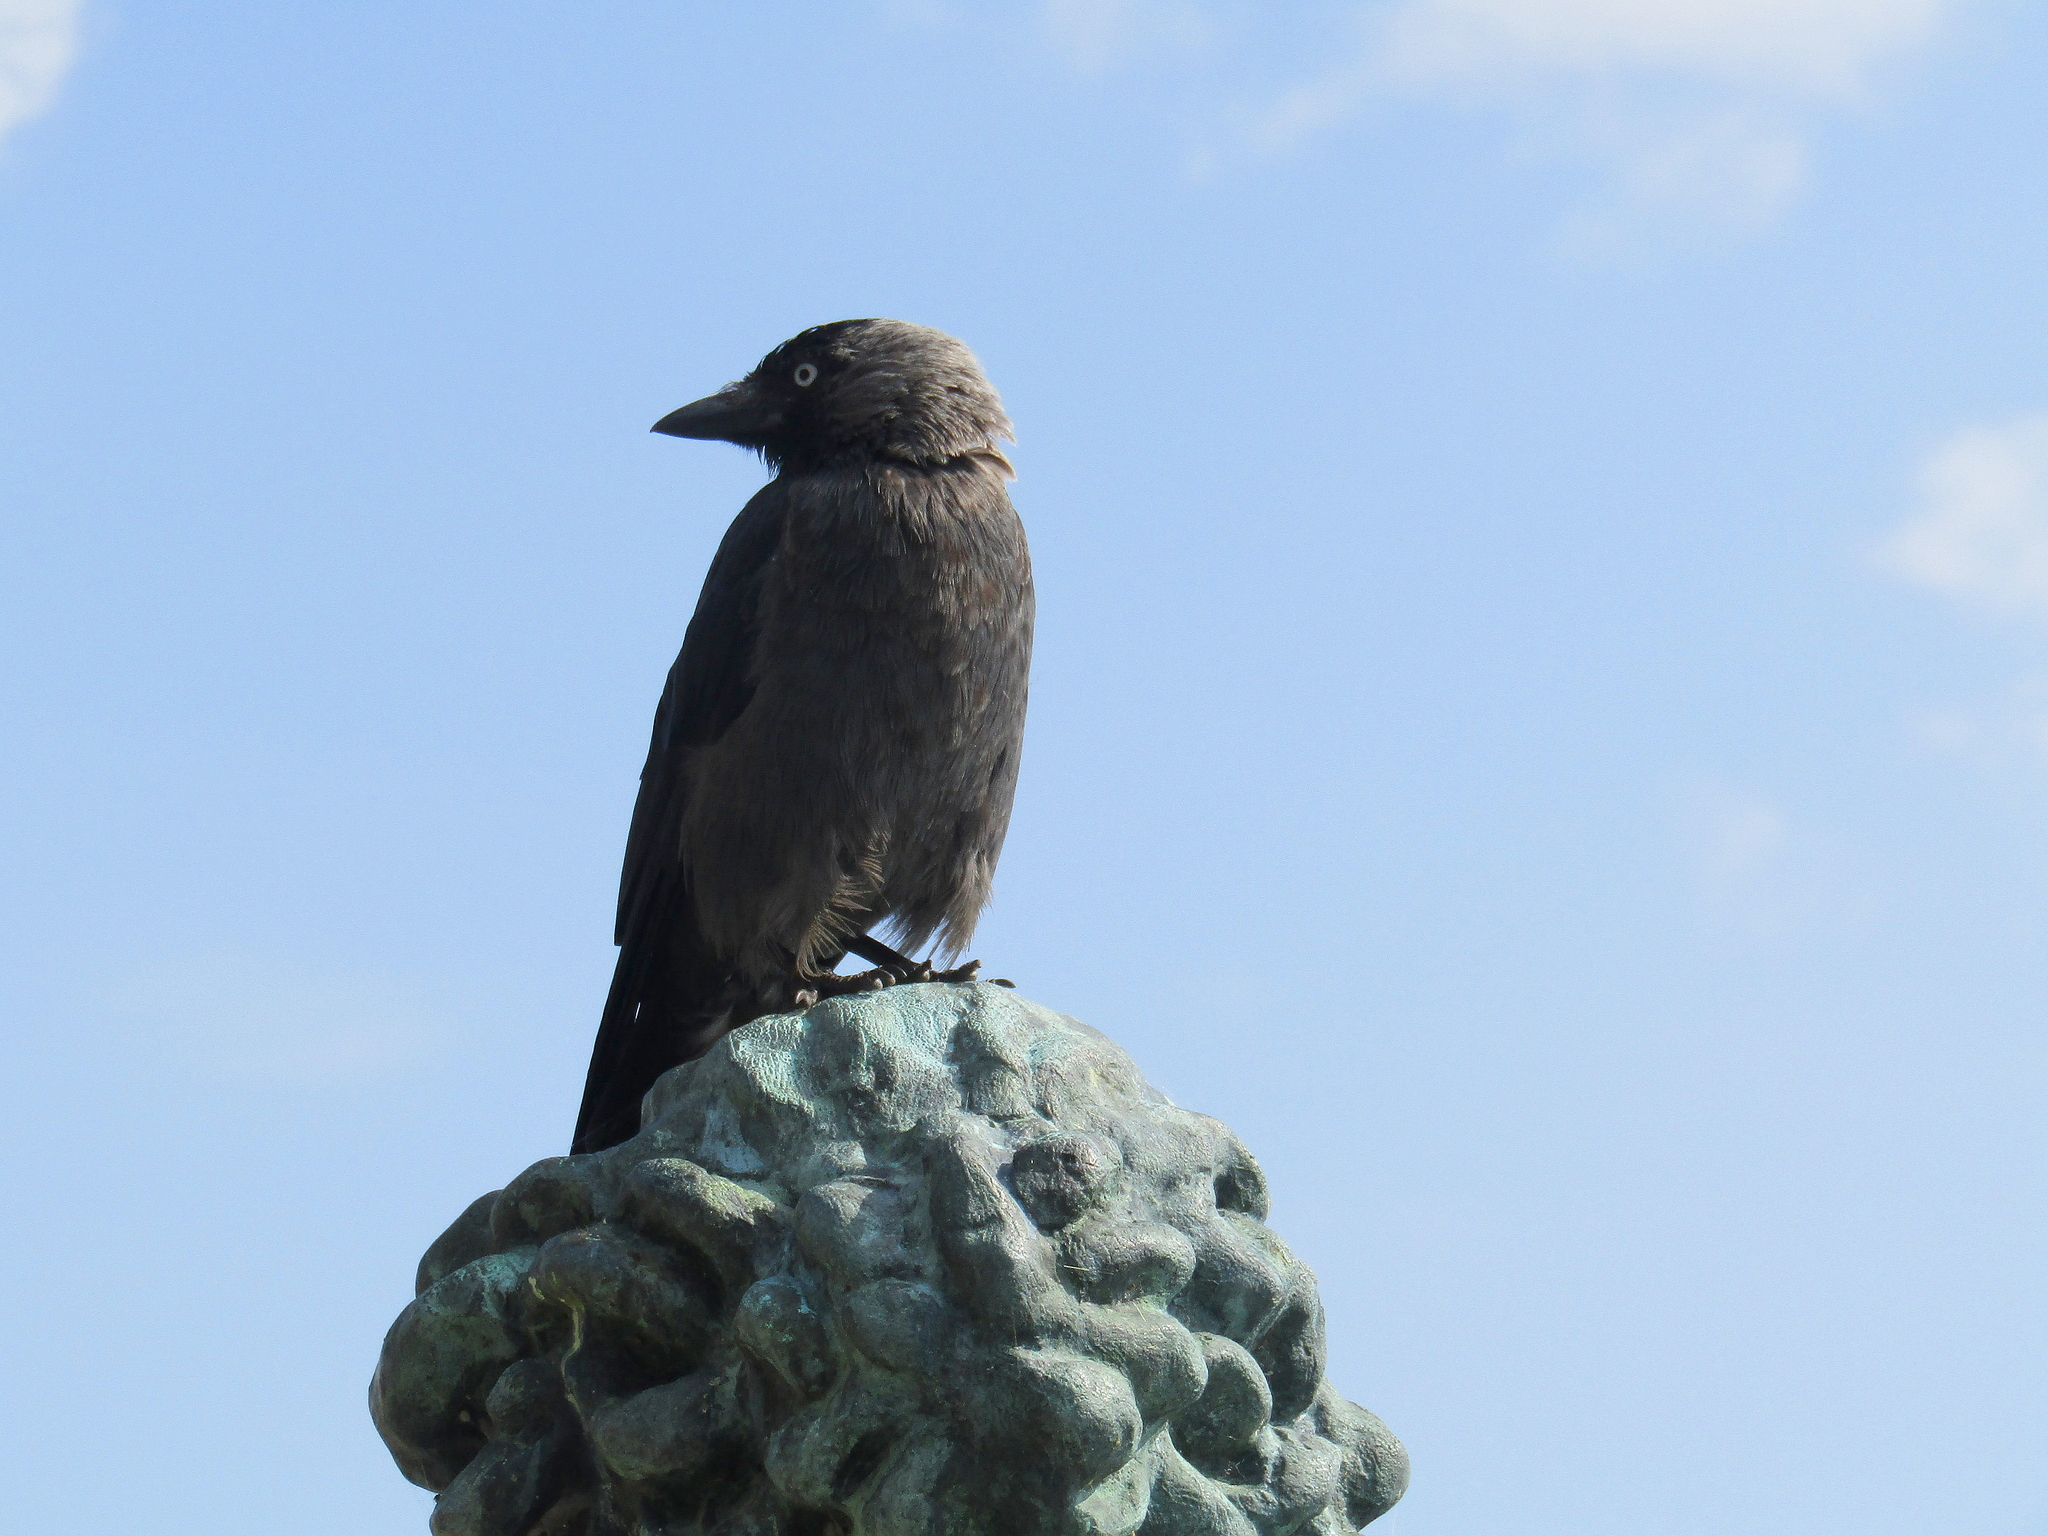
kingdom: Animalia
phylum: Chordata
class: Aves
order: Passeriformes
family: Corvidae
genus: Coloeus
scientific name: Coloeus monedula
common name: Western jackdaw
